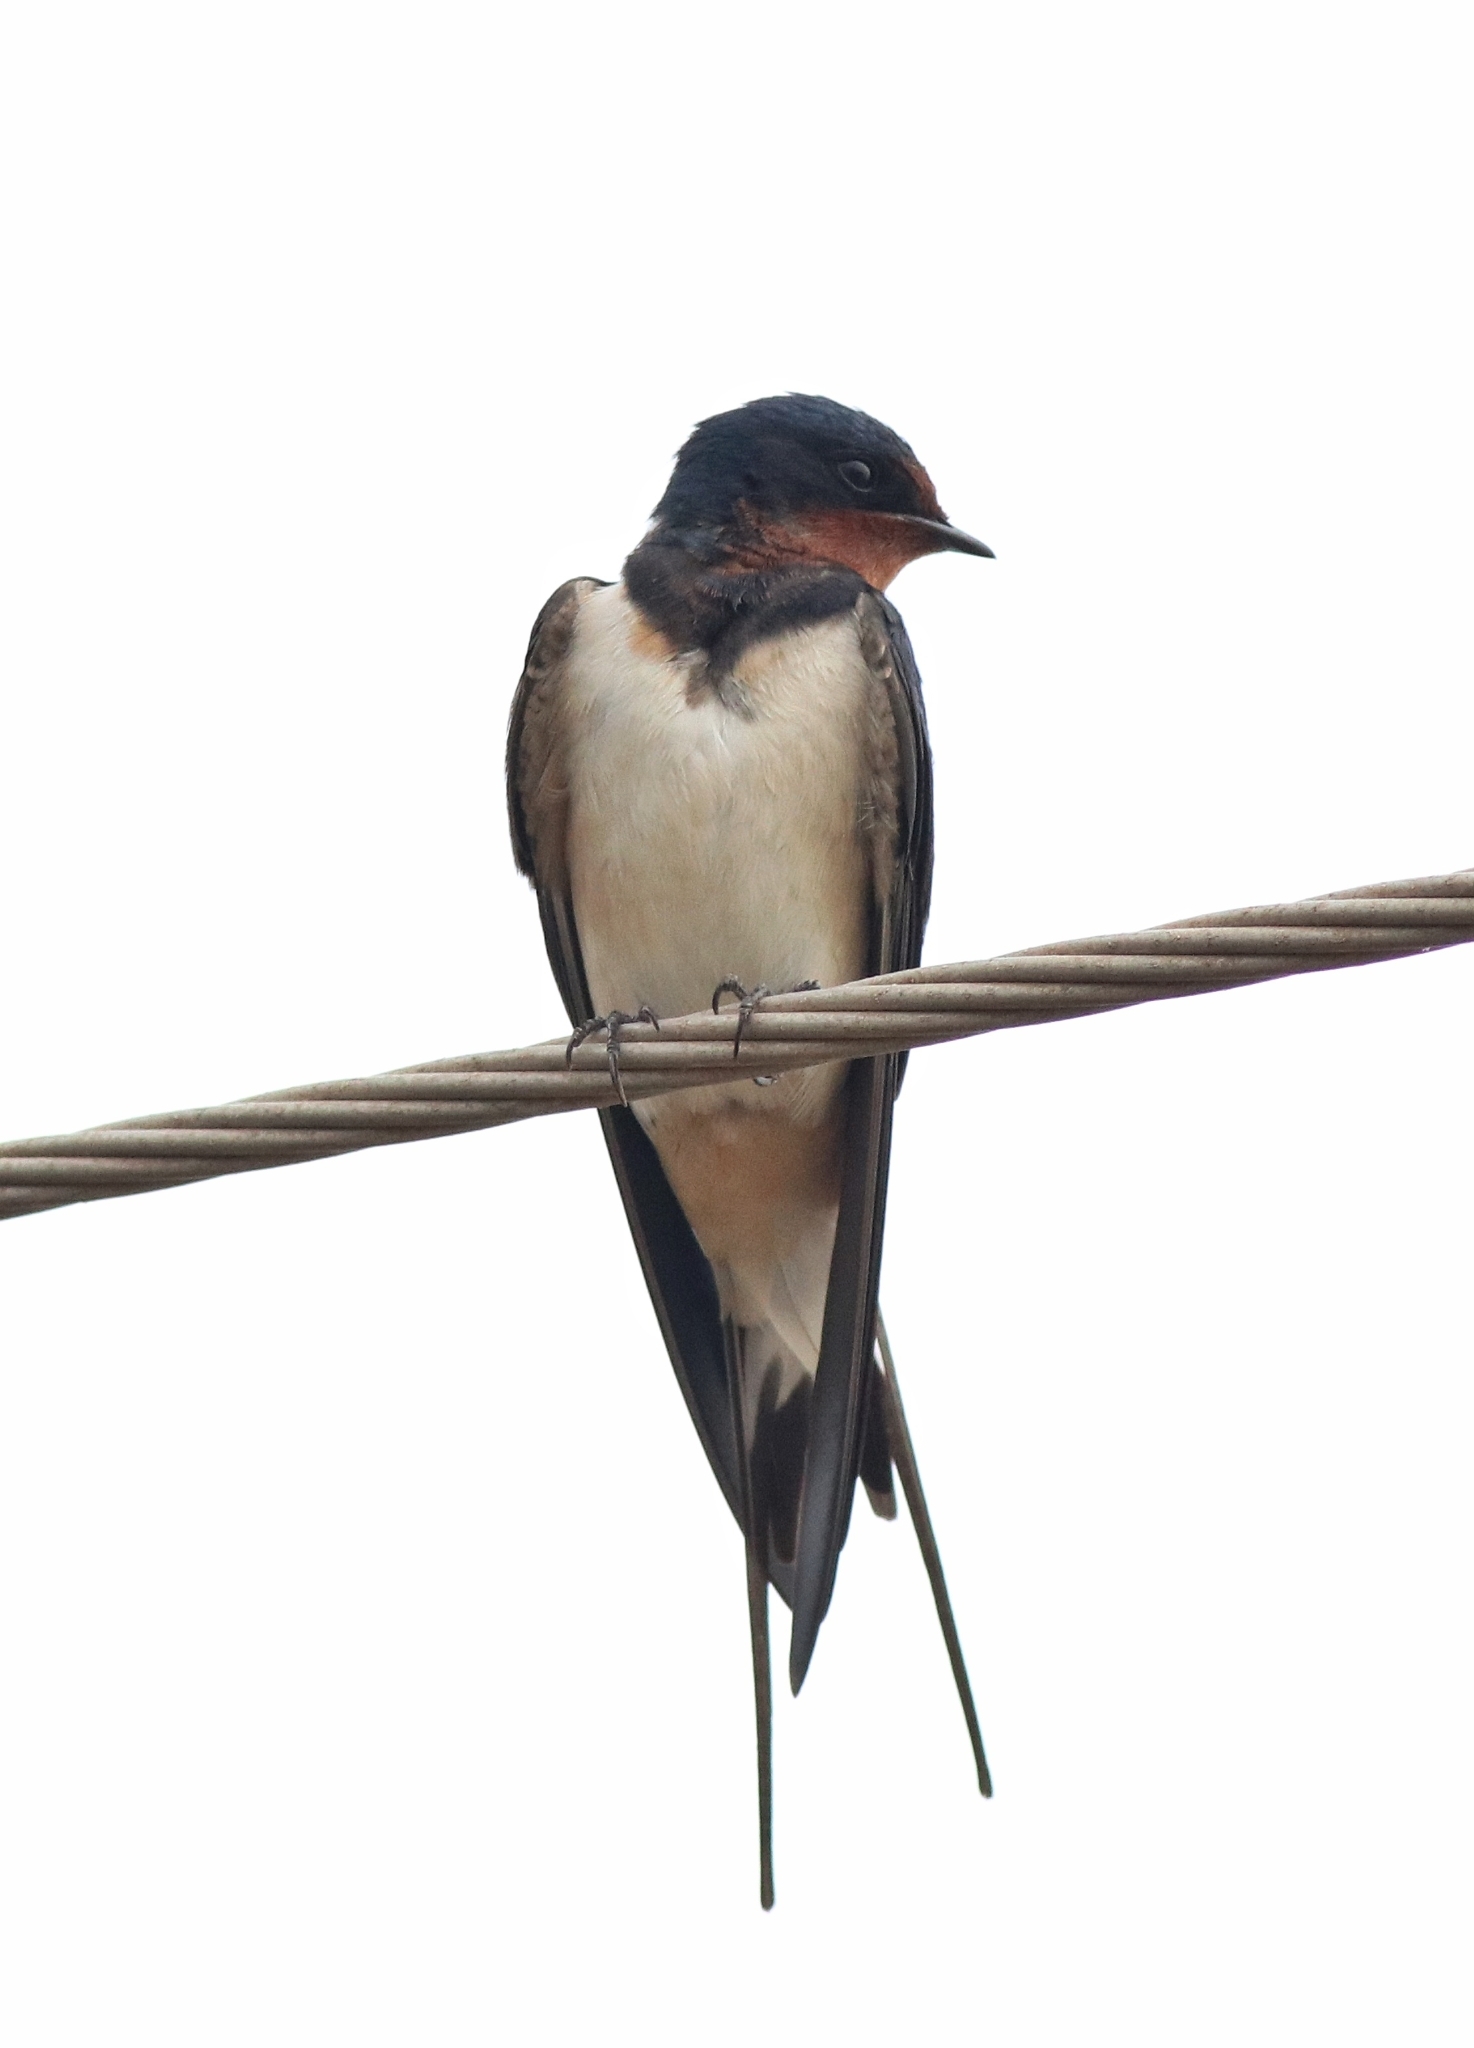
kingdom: Animalia
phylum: Chordata
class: Aves
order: Passeriformes
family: Hirundinidae
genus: Hirundo
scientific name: Hirundo rustica
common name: Barn swallow
